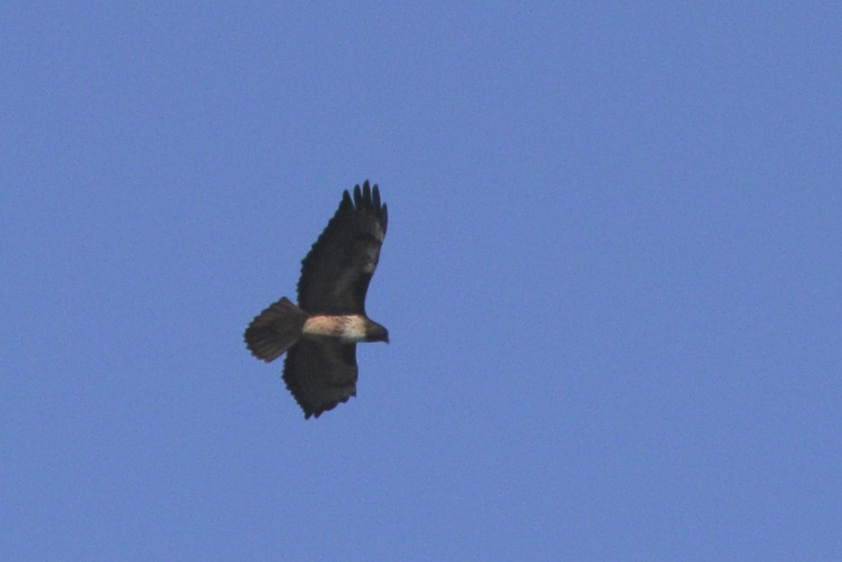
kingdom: Animalia
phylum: Chordata
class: Aves
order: Accipitriformes
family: Accipitridae
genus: Buteo
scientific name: Buteo jamaicensis
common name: Red-tailed hawk
